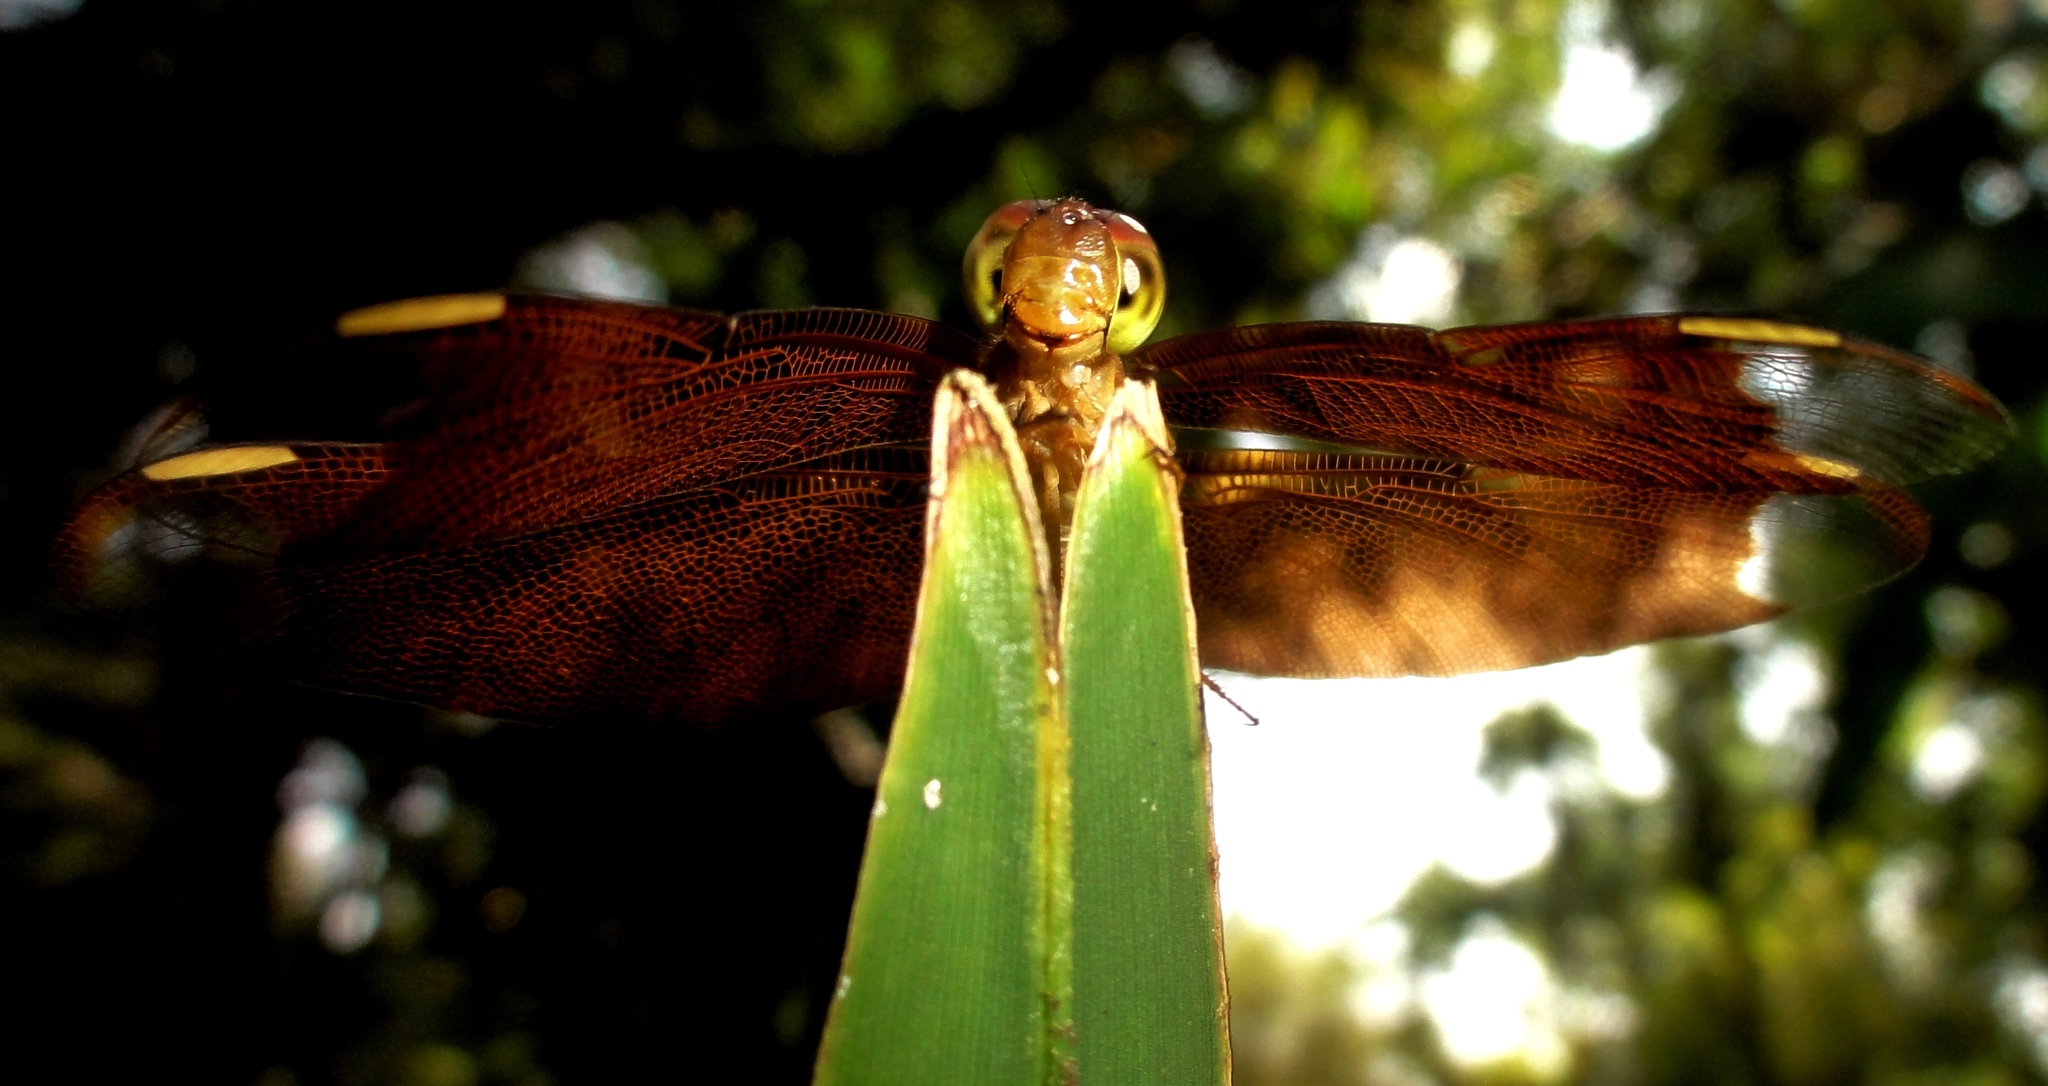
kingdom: Animalia
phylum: Arthropoda
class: Insecta
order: Odonata
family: Libellulidae
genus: Neurothemis
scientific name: Neurothemis fulvia
